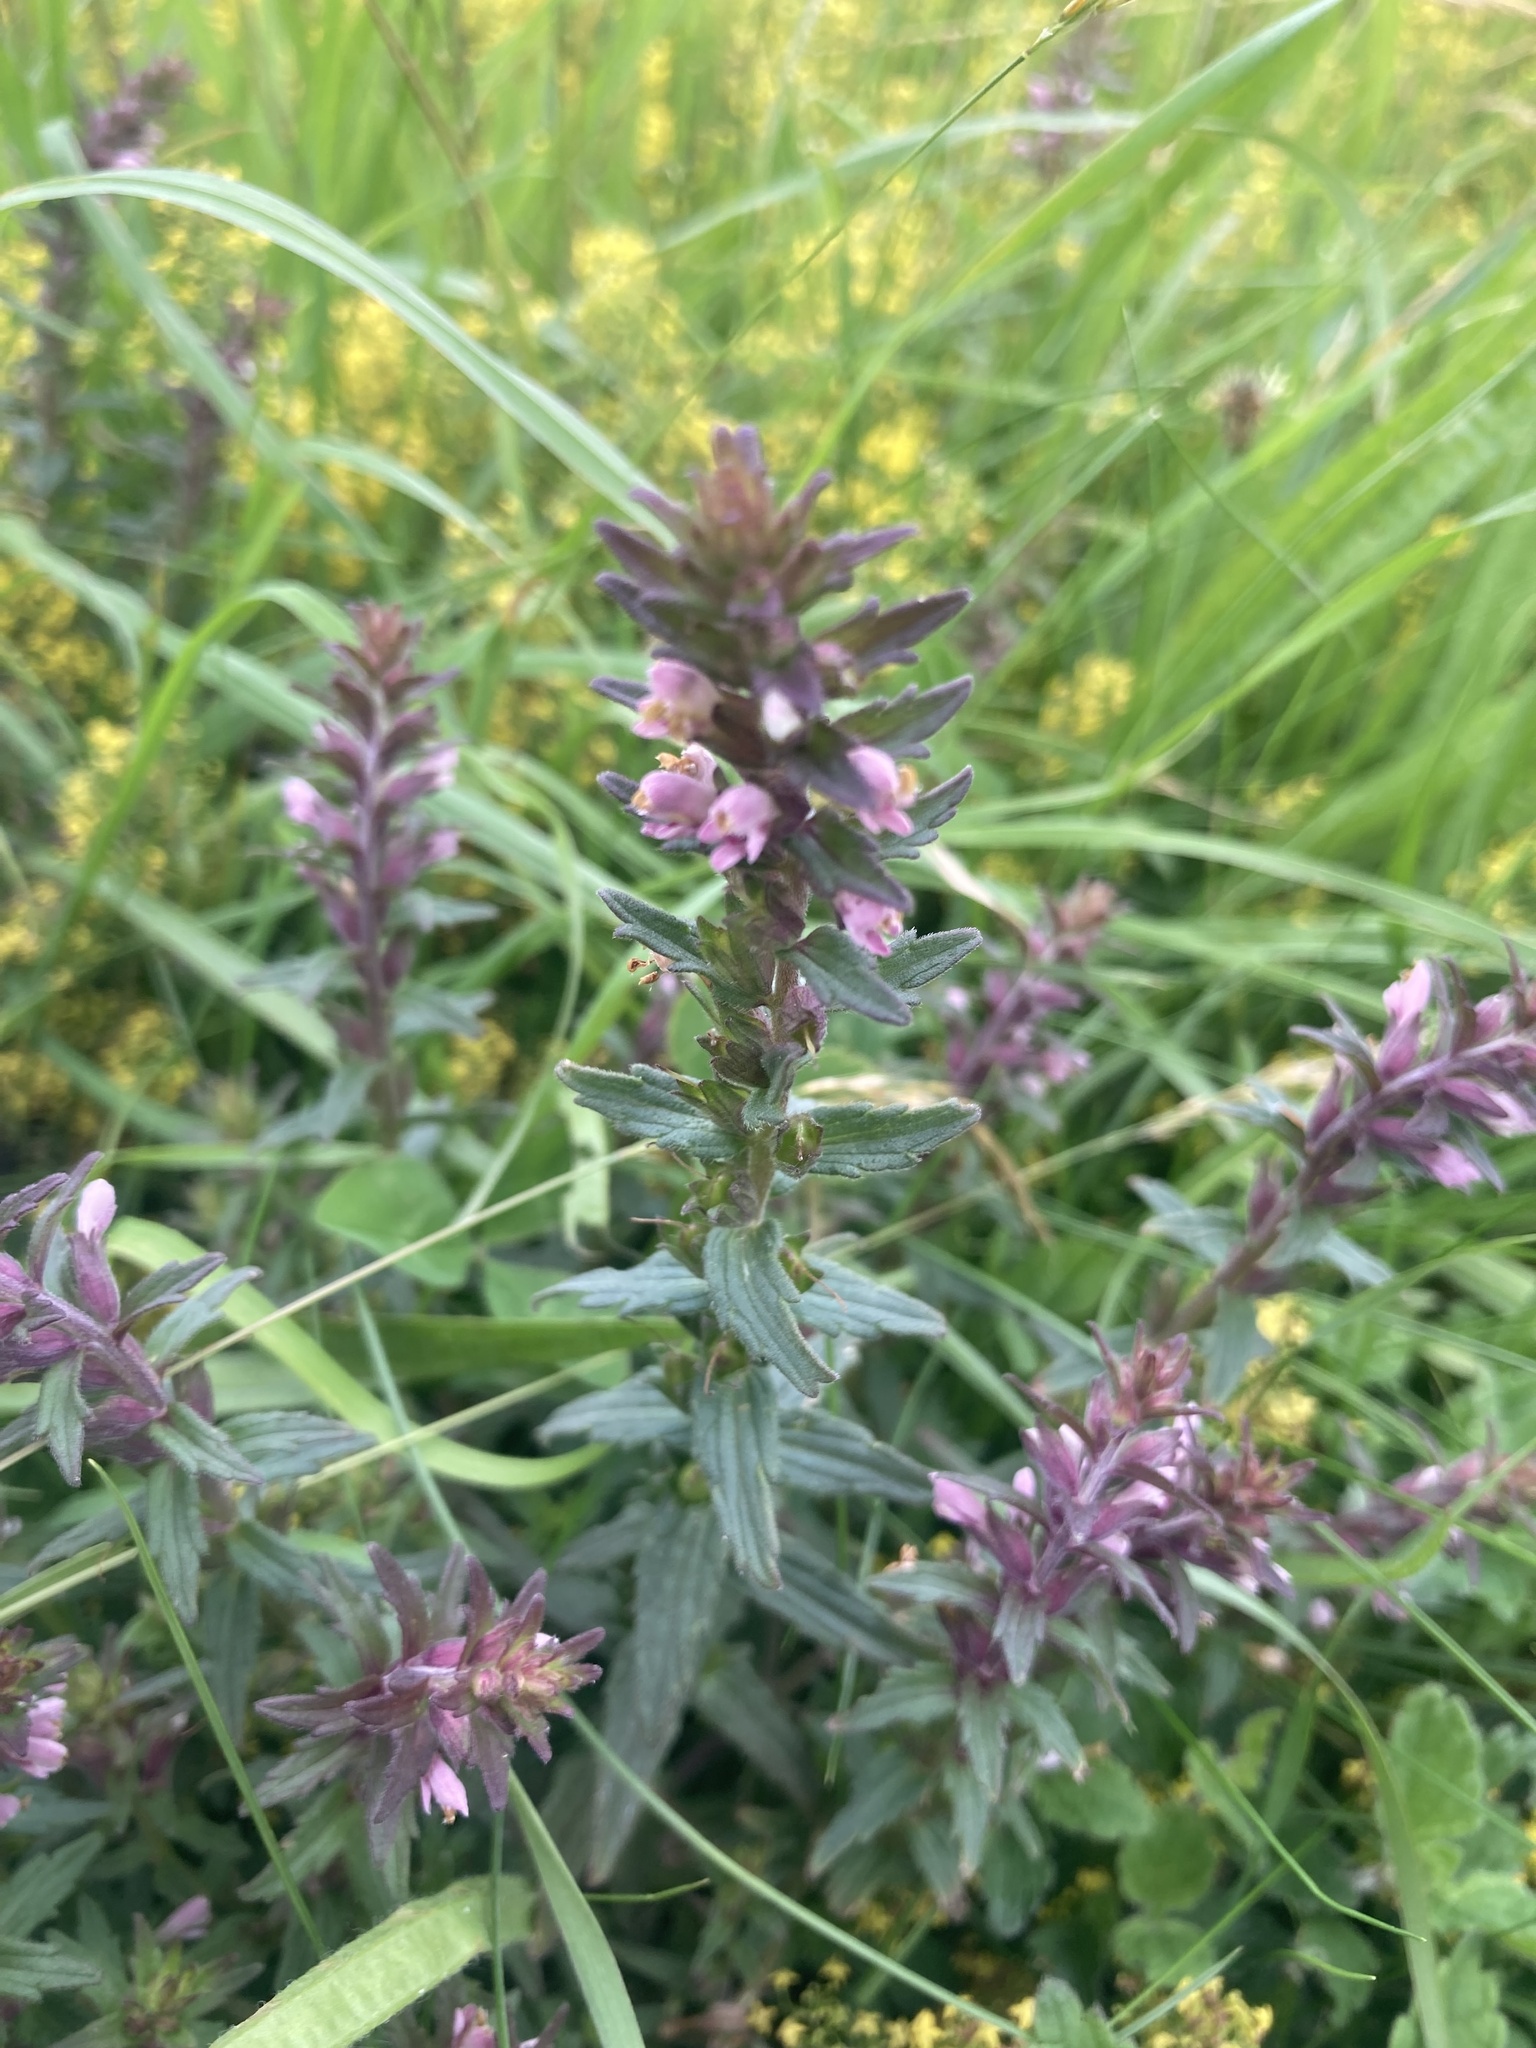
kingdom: Plantae
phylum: Tracheophyta
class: Magnoliopsida
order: Lamiales
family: Orobanchaceae
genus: Odontites
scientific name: Odontites vernus
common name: Red bartsia
